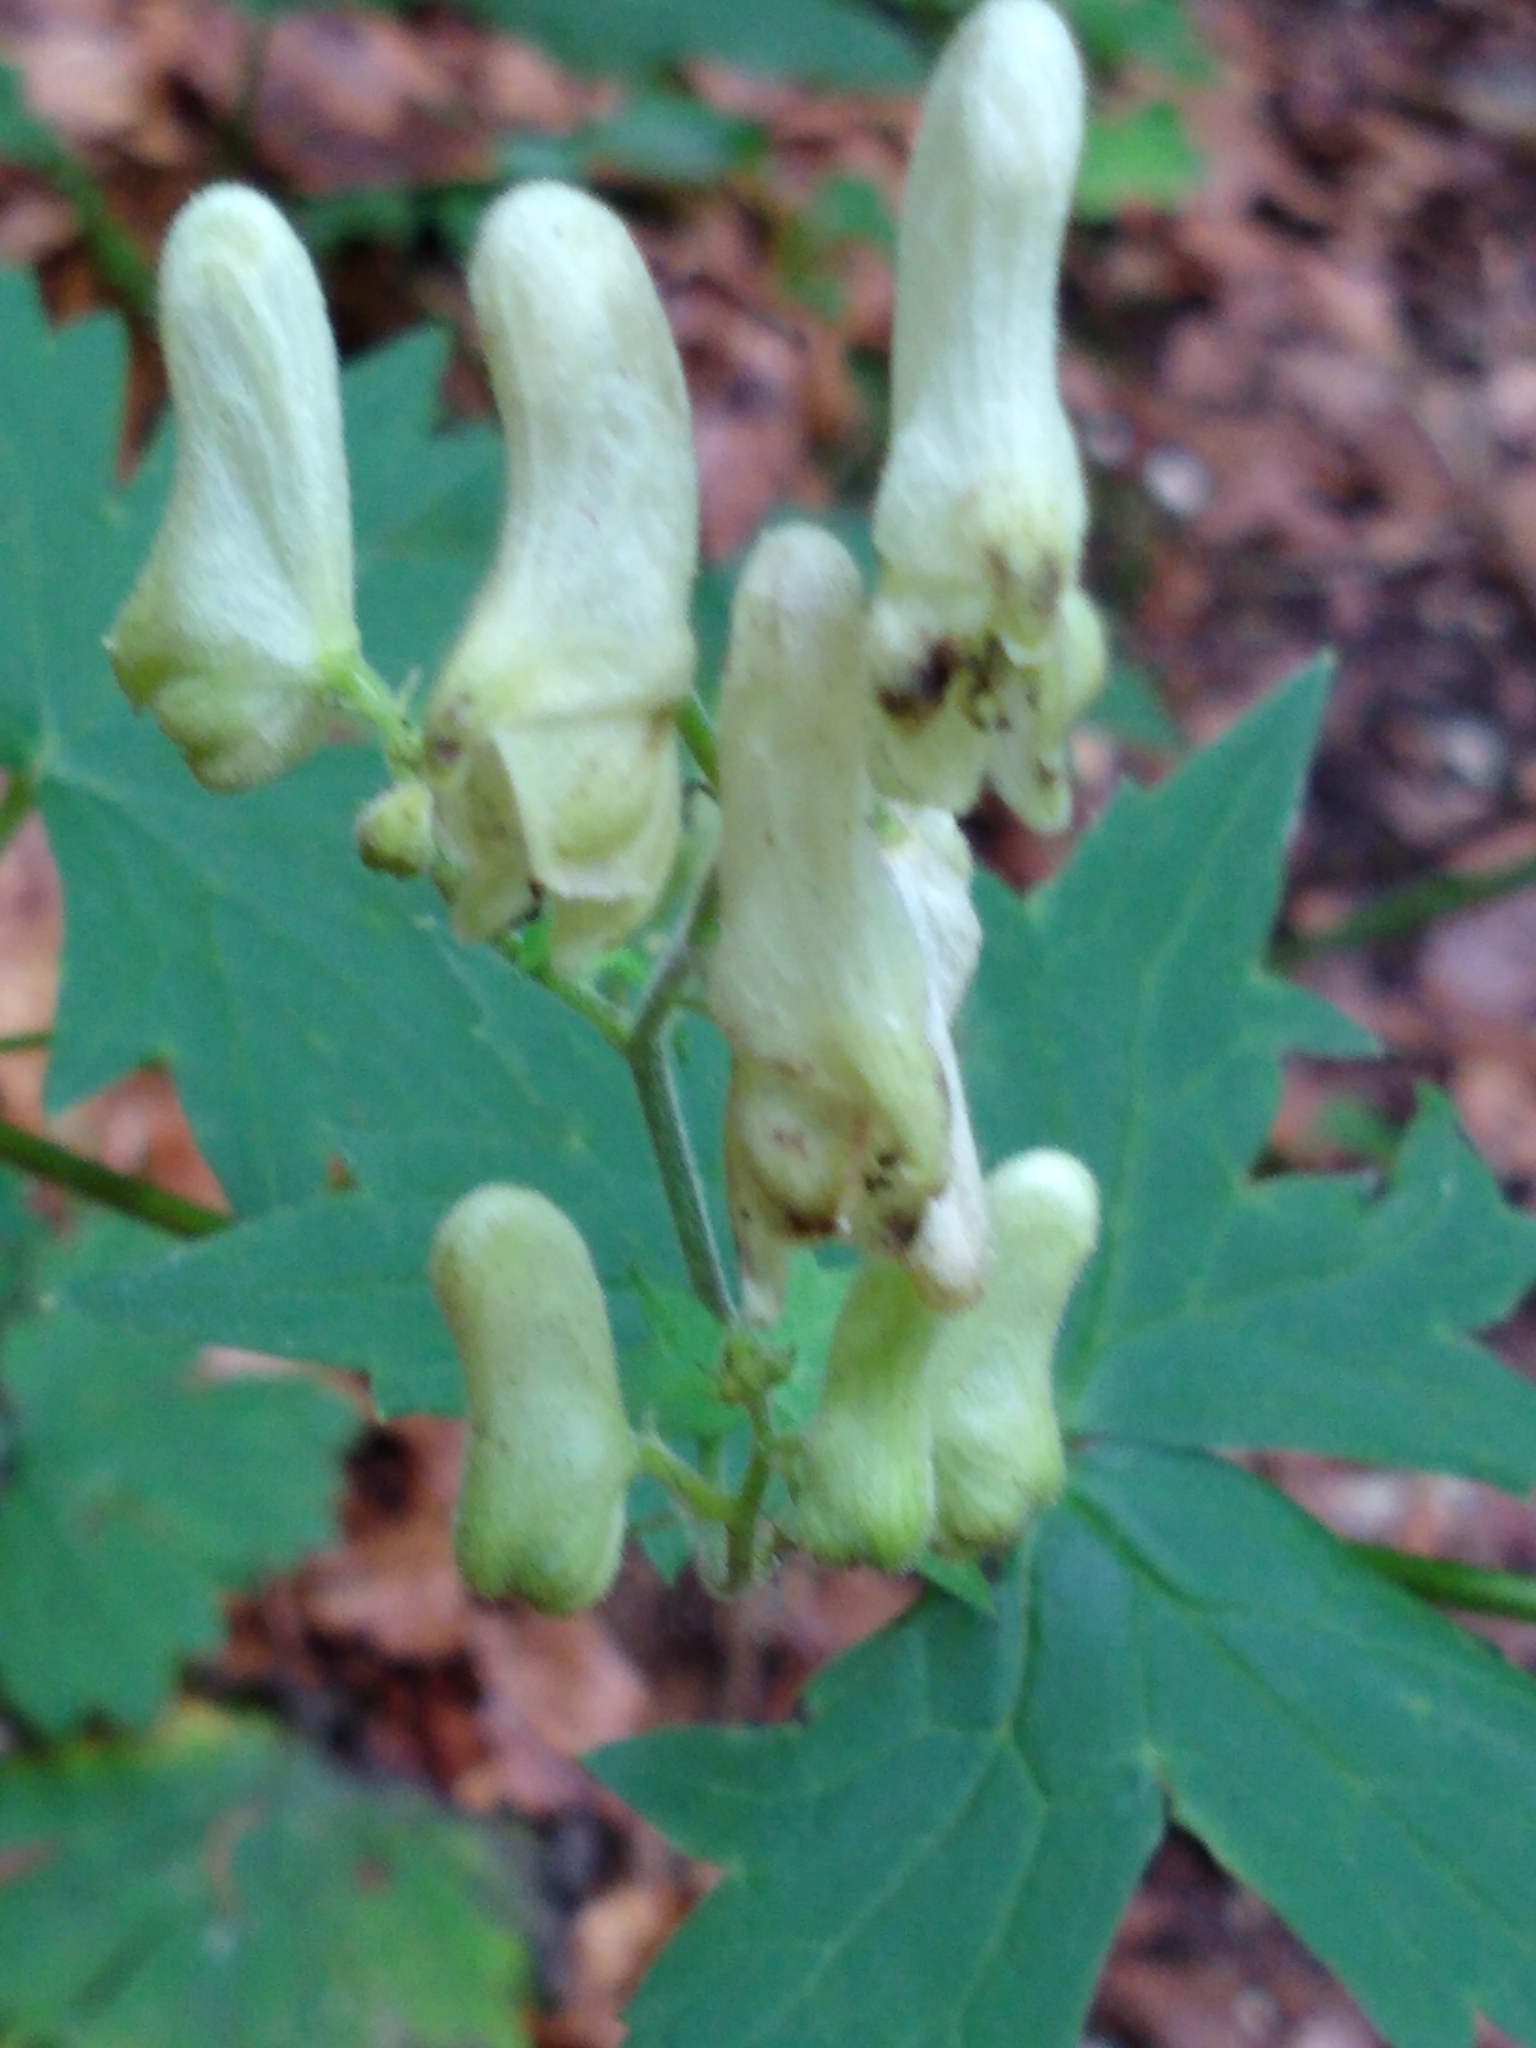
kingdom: Plantae
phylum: Tracheophyta
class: Magnoliopsida
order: Ranunculales
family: Ranunculaceae
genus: Aconitum
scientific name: Aconitum lycoctonum
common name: Wolf's-bane
